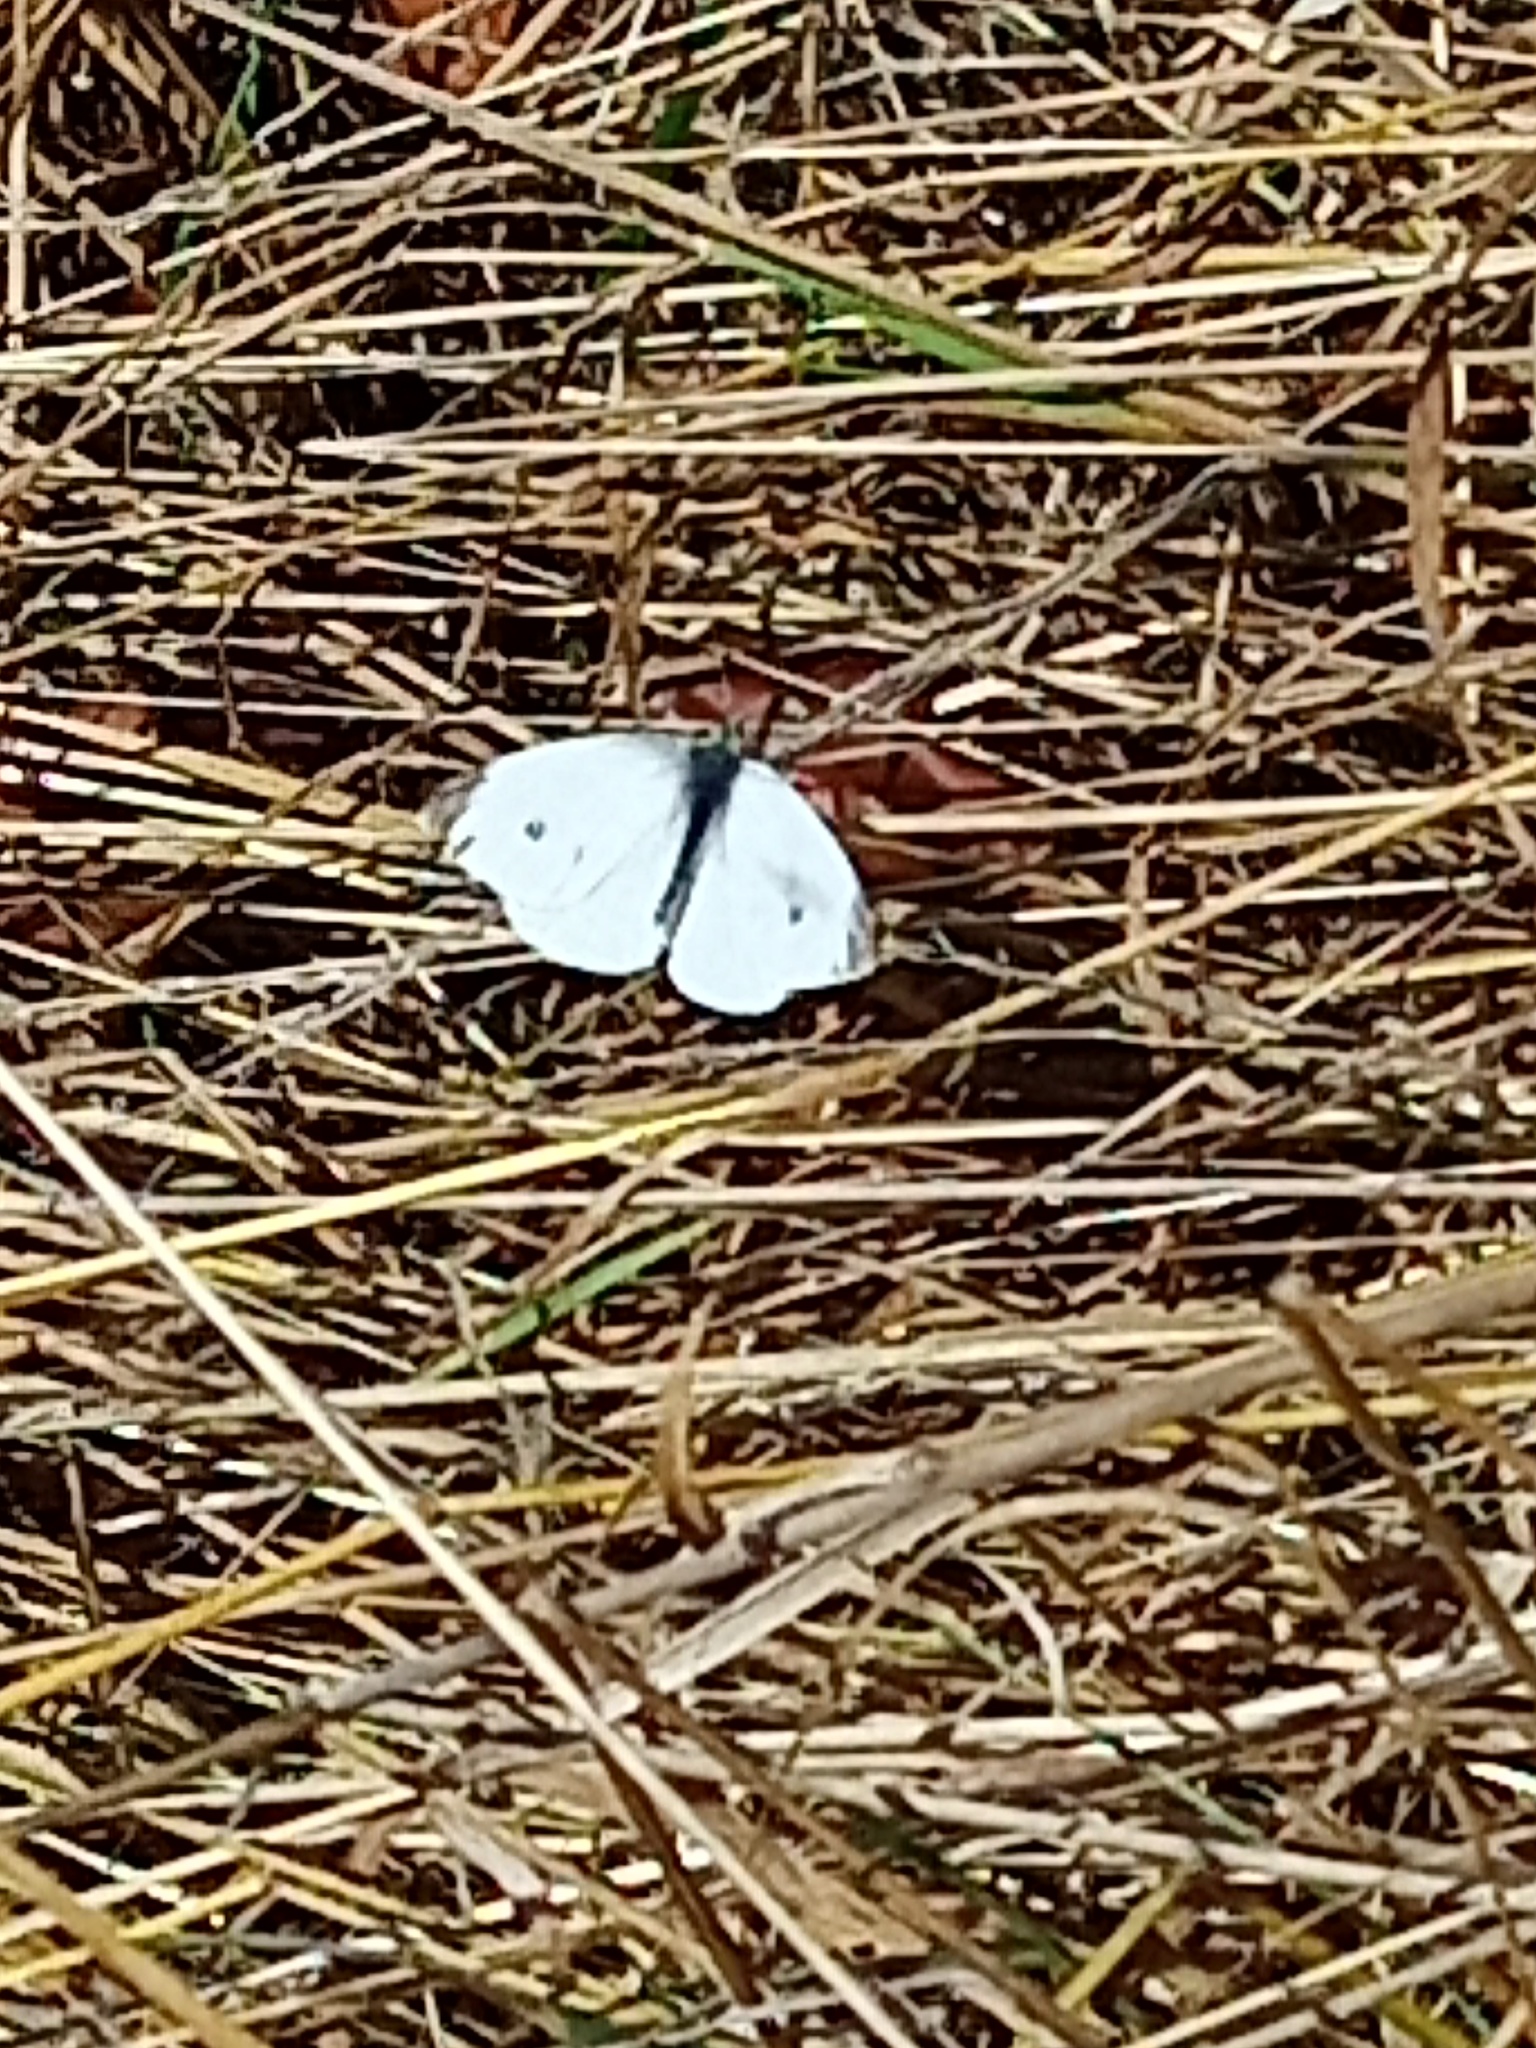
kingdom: Animalia
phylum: Arthropoda
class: Insecta
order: Lepidoptera
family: Pieridae
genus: Pieris
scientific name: Pieris rapae
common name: Small white
